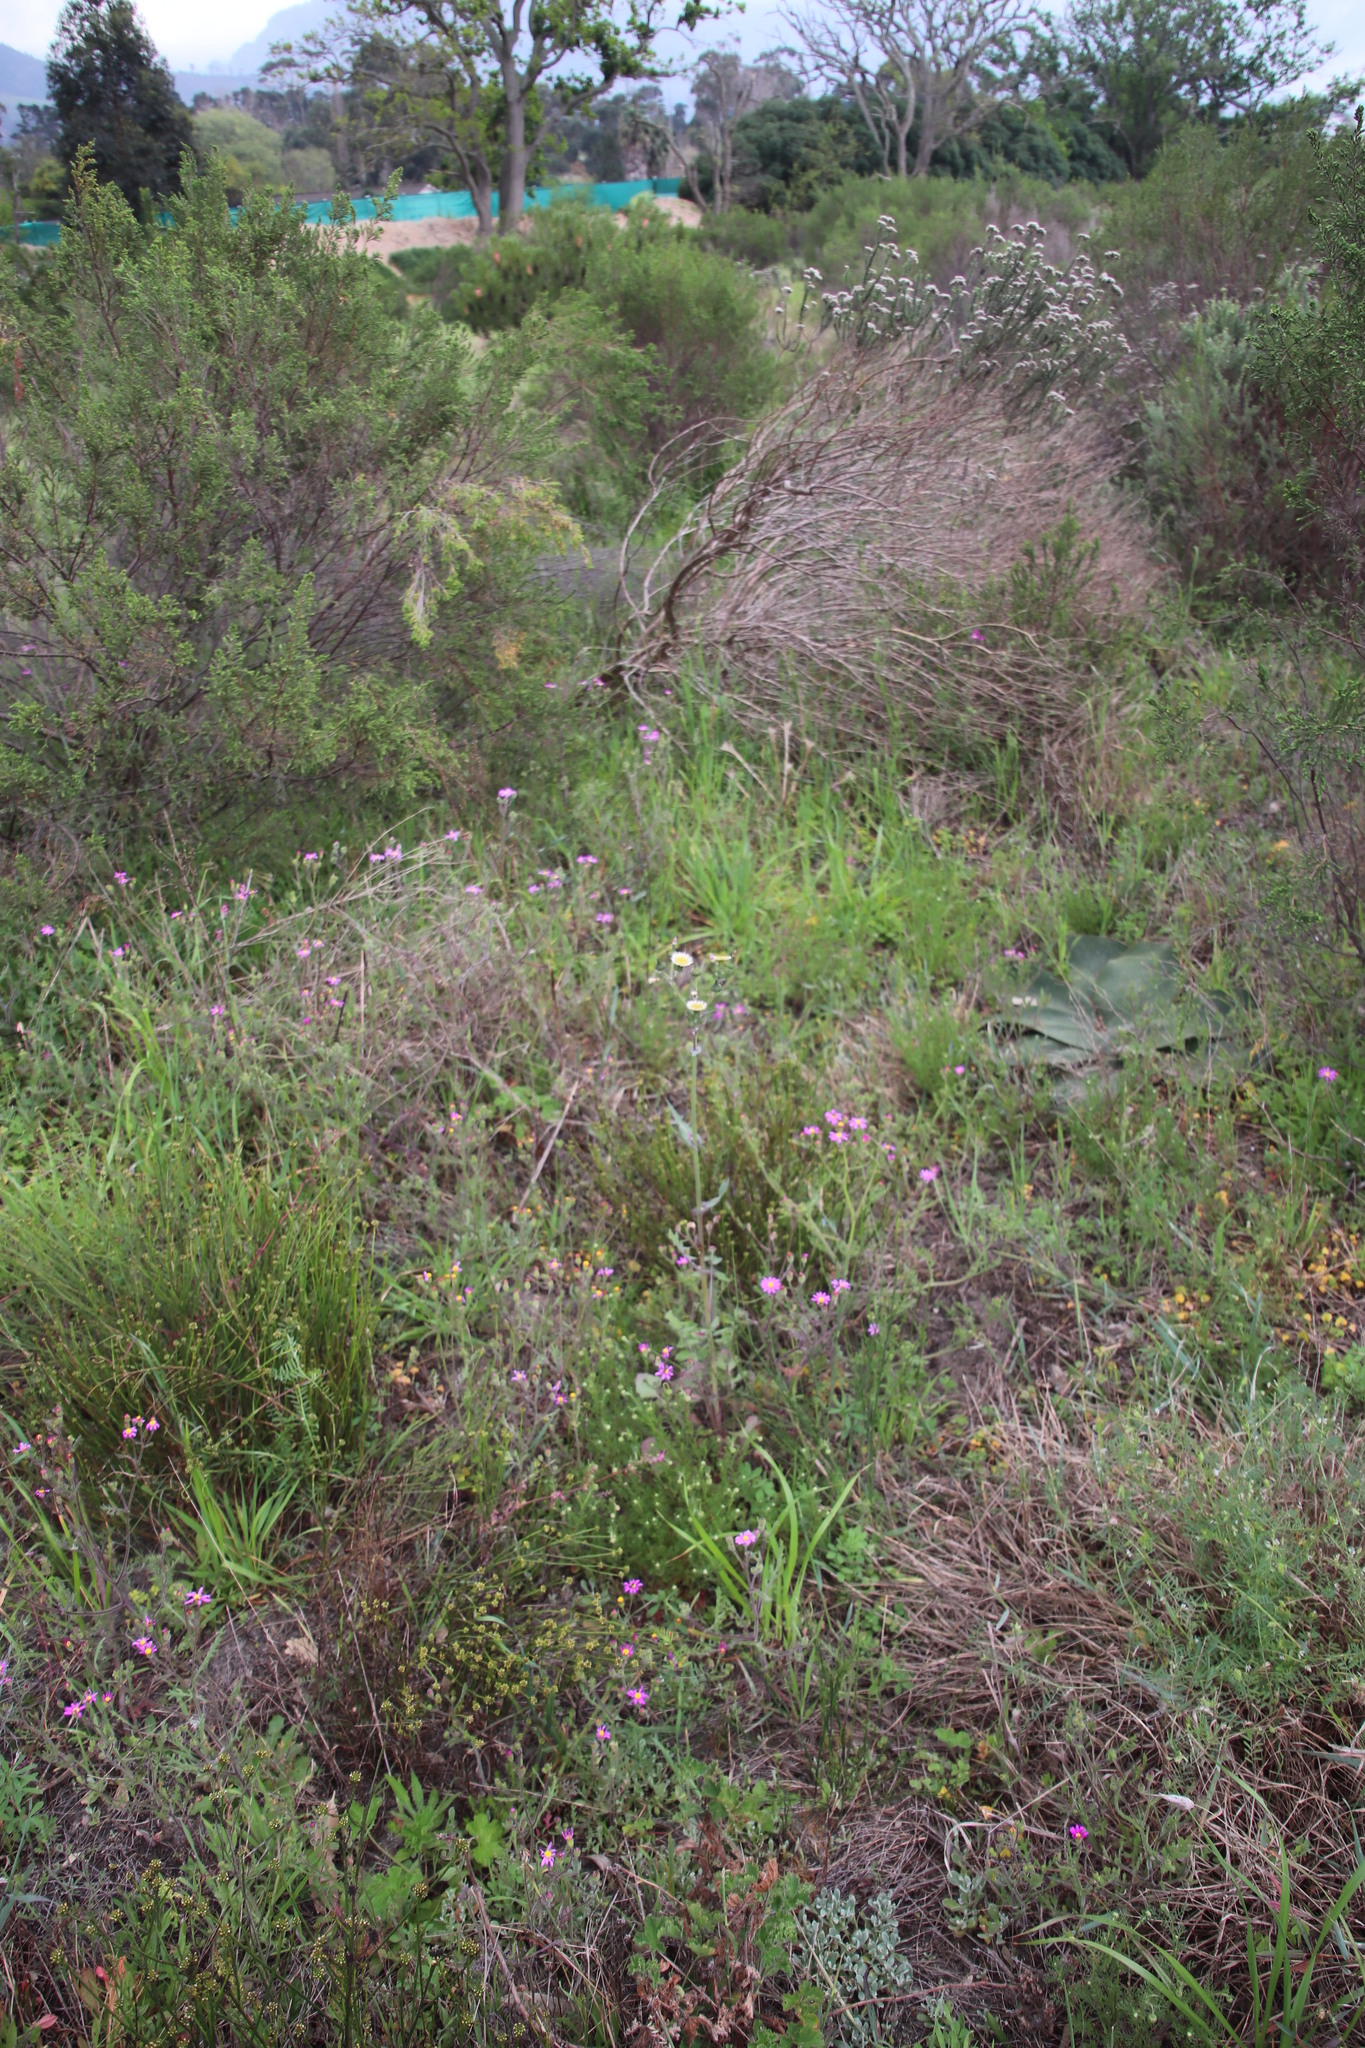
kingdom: Plantae
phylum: Tracheophyta
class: Magnoliopsida
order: Asterales
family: Asteraceae
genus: Sonchus
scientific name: Sonchus oleraceus
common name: Common sowthistle
